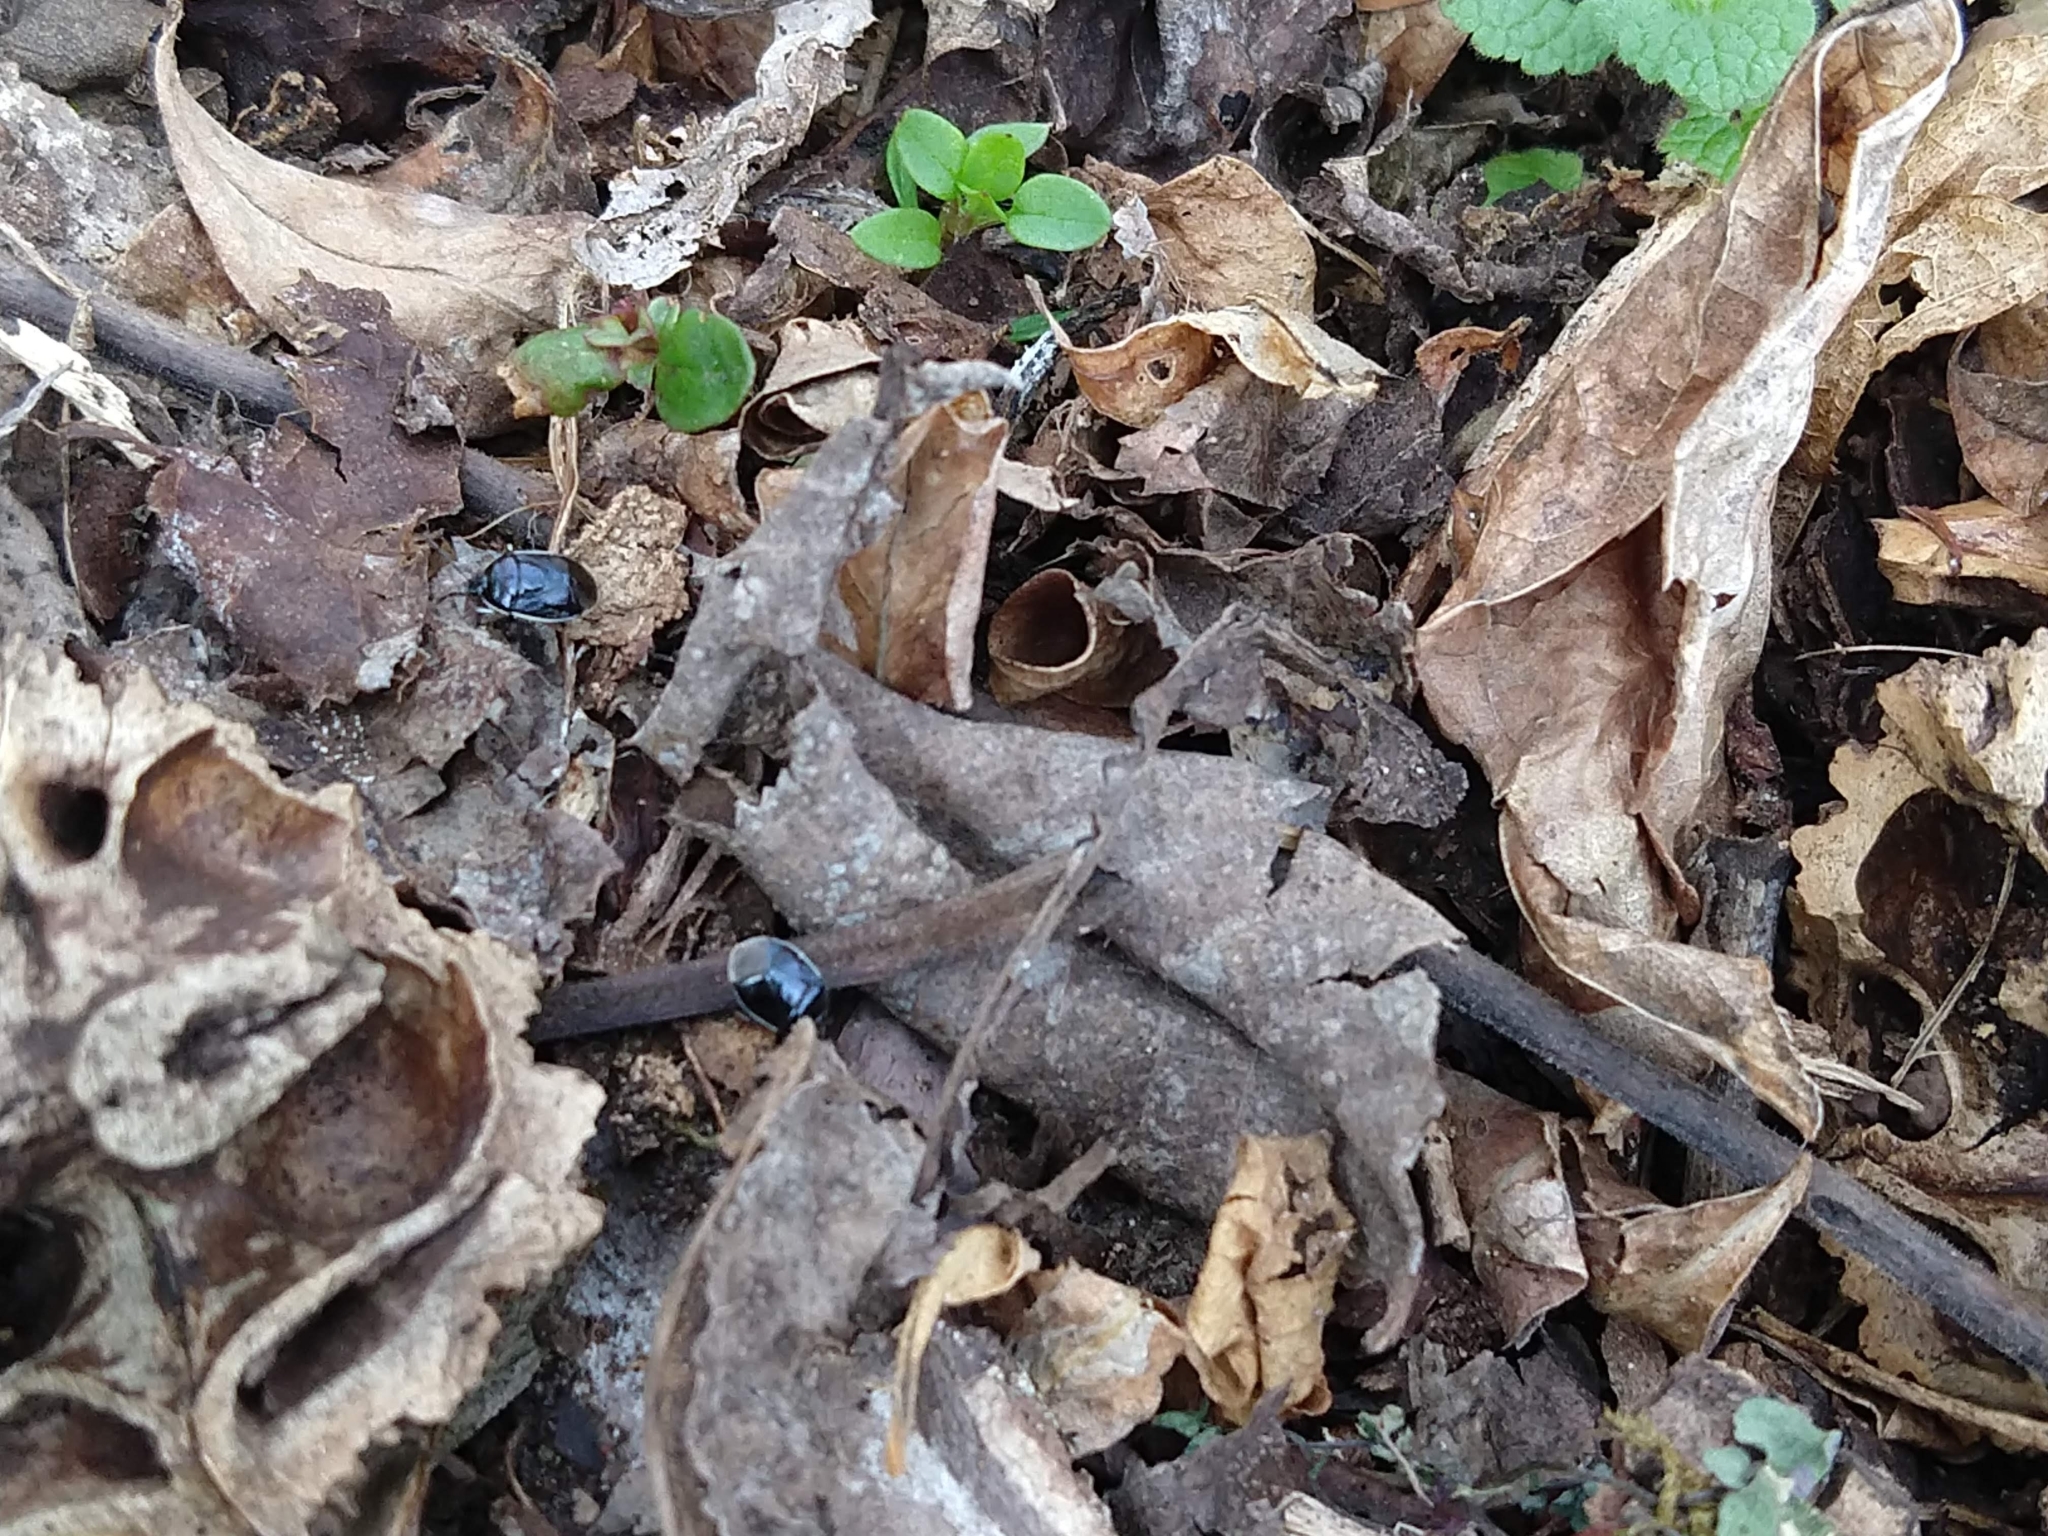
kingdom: Animalia
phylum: Arthropoda
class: Insecta
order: Hemiptera
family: Cydnidae
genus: Sehirus
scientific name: Sehirus cinctus
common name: White-margined burrower bug
